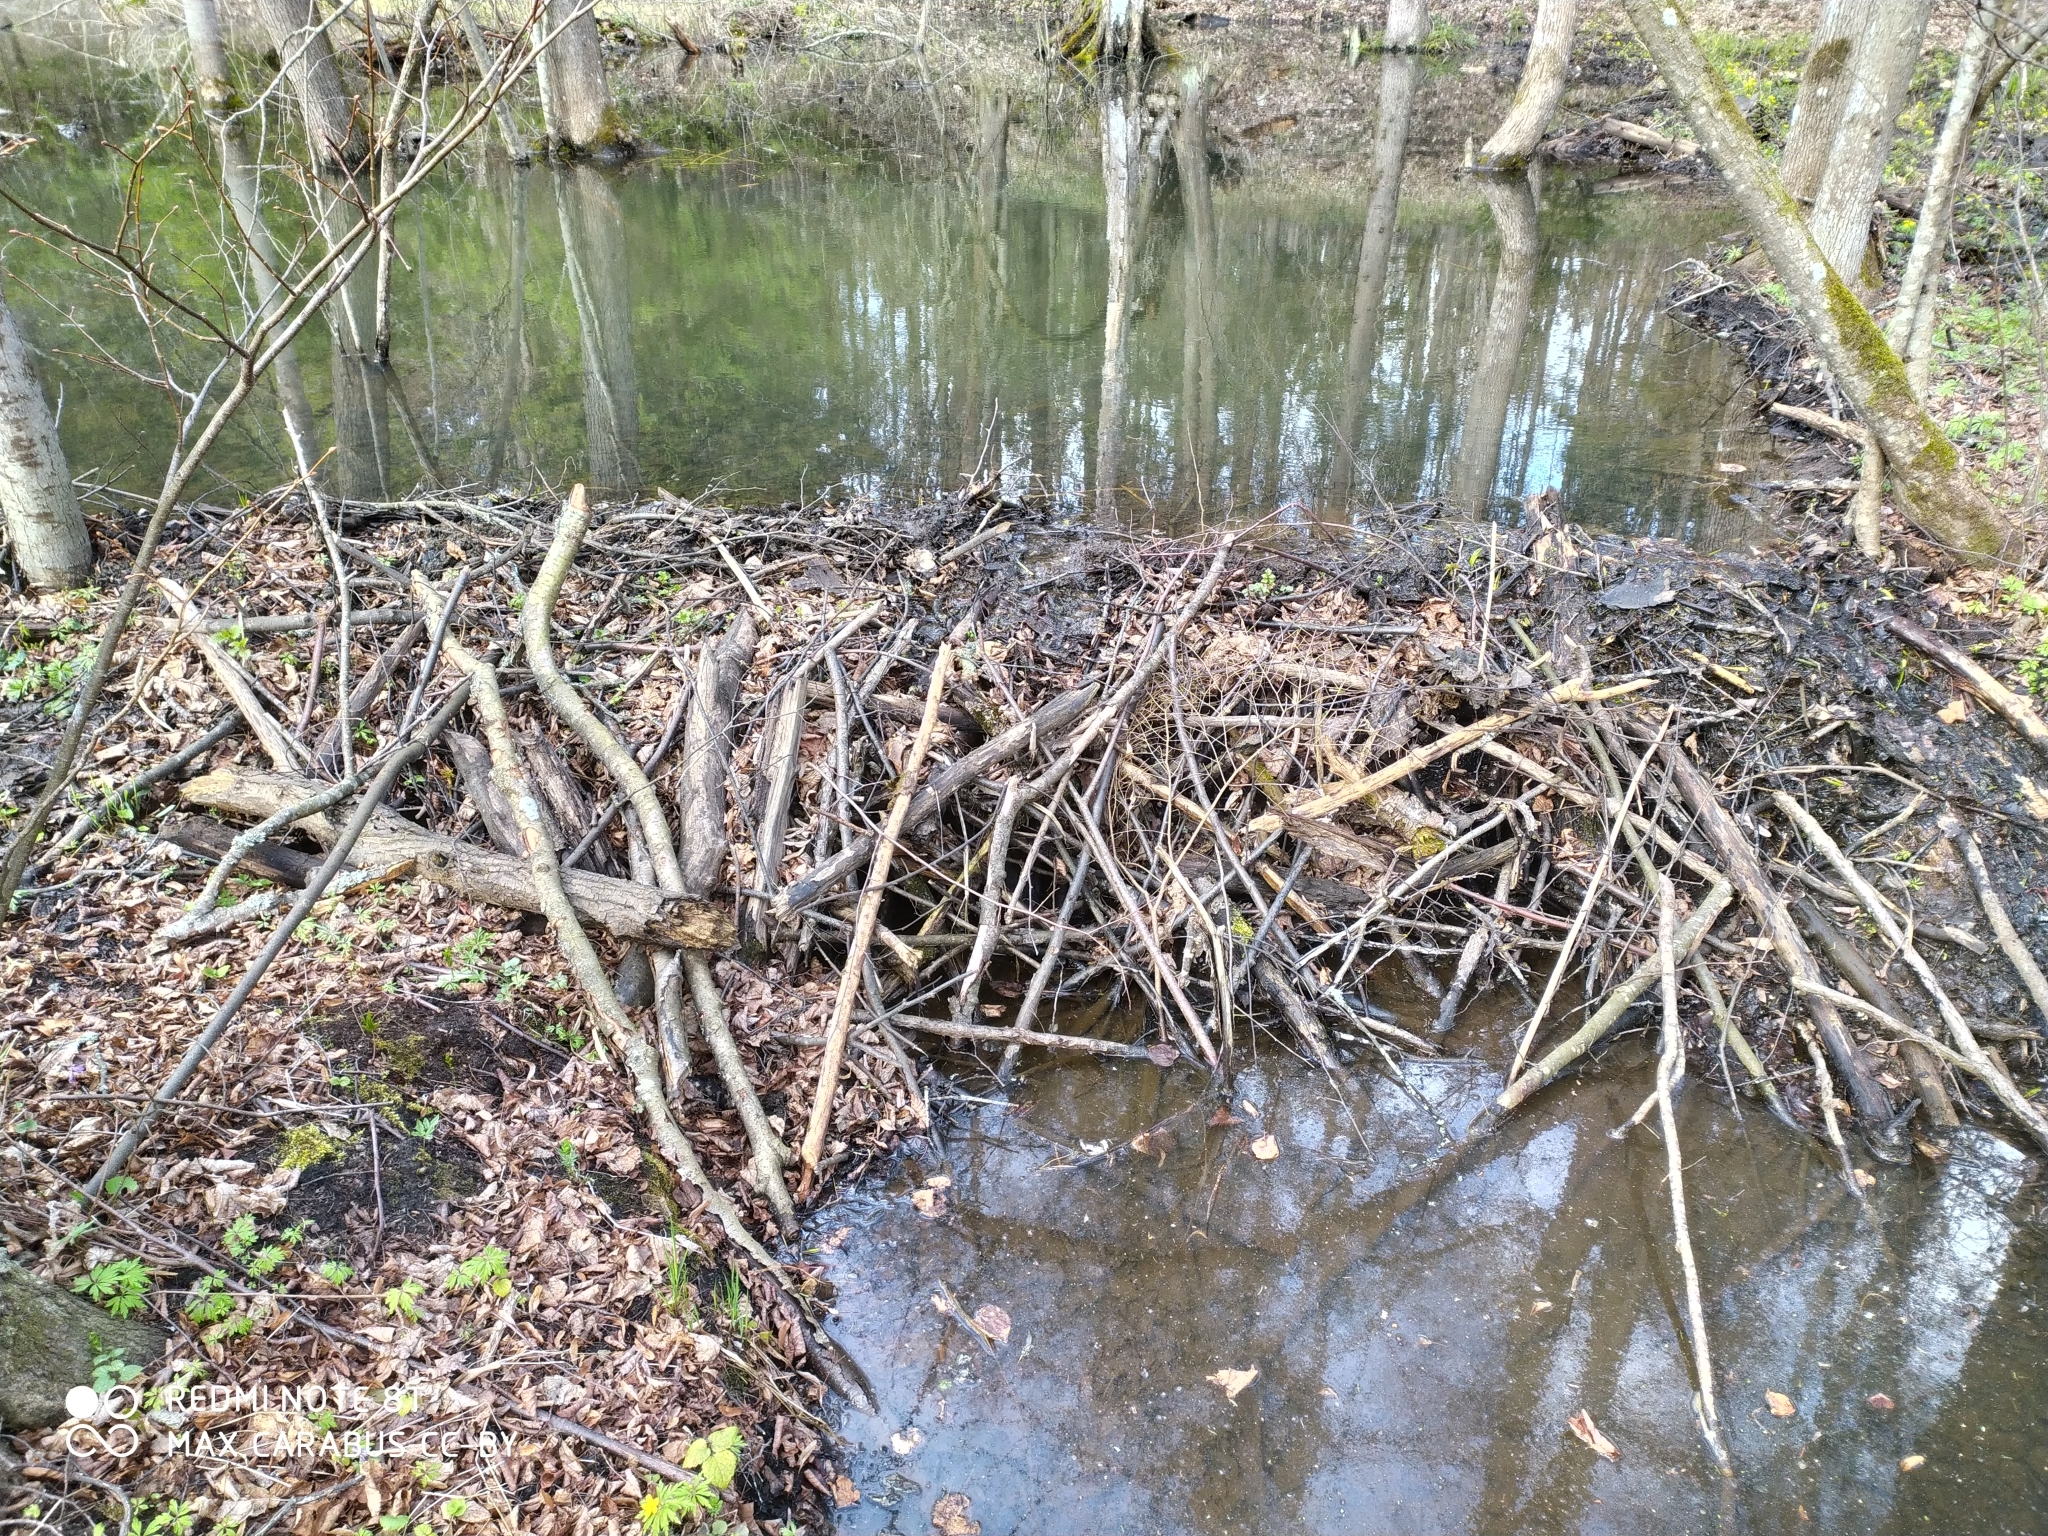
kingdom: Animalia
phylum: Chordata
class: Mammalia
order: Rodentia
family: Castoridae
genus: Castor
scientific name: Castor fiber
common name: Eurasian beaver
